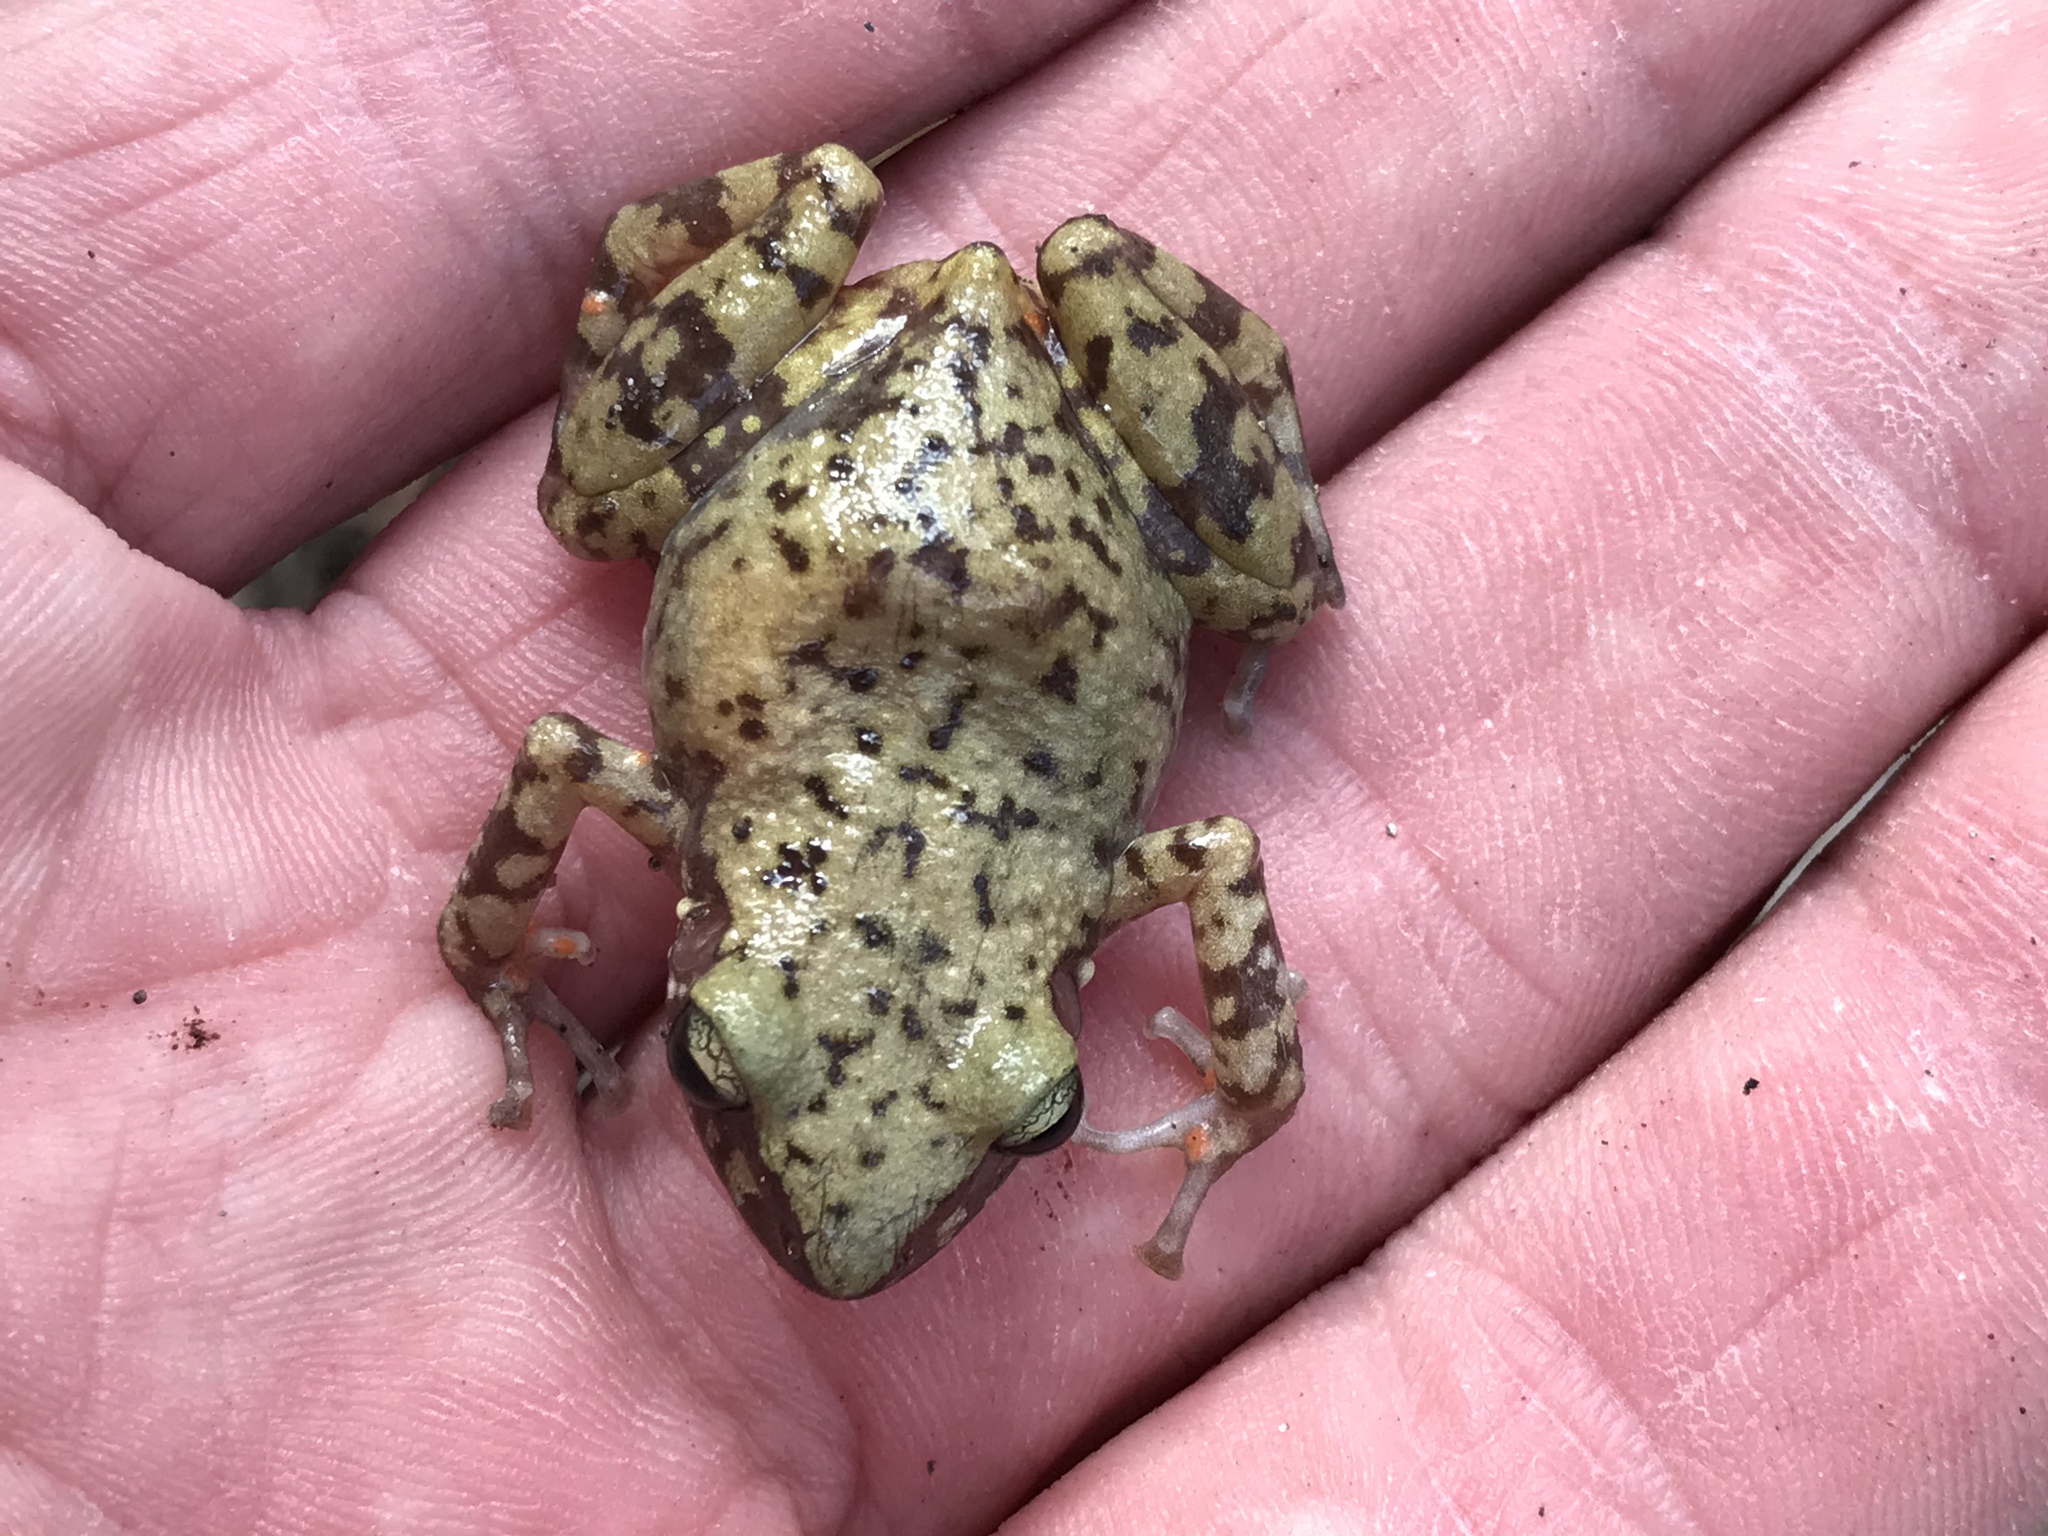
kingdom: Animalia
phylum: Chordata
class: Amphibia
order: Anura
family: Eleutherodactylidae
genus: Eleutherodactylus
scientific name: Eleutherodactylus marnockii
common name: Cliff chirping frog
